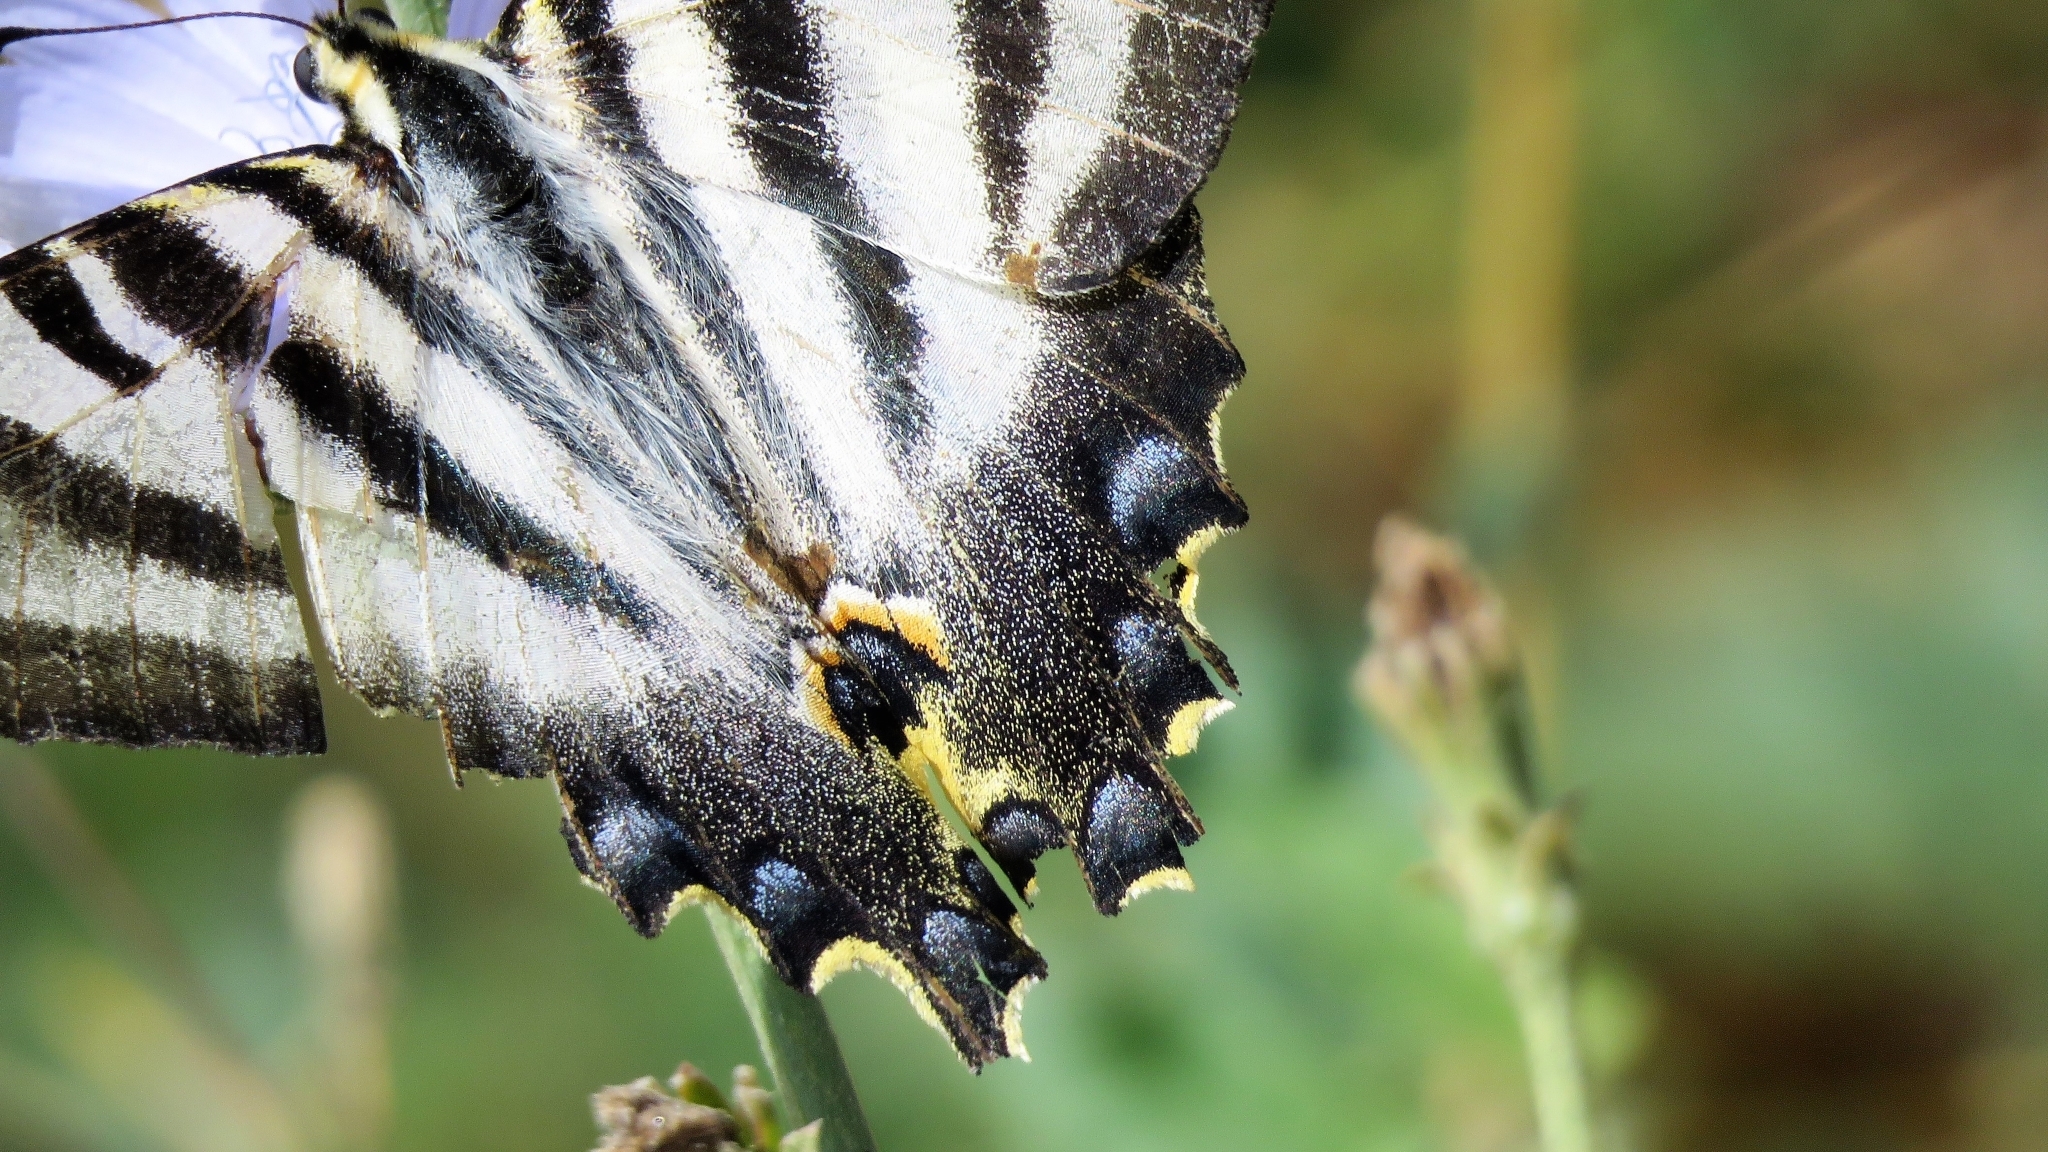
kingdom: Animalia
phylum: Arthropoda
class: Insecta
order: Lepidoptera
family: Papilionidae
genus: Iphiclides
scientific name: Iphiclides feisthamelii
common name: Iberian scarce swallowtail
